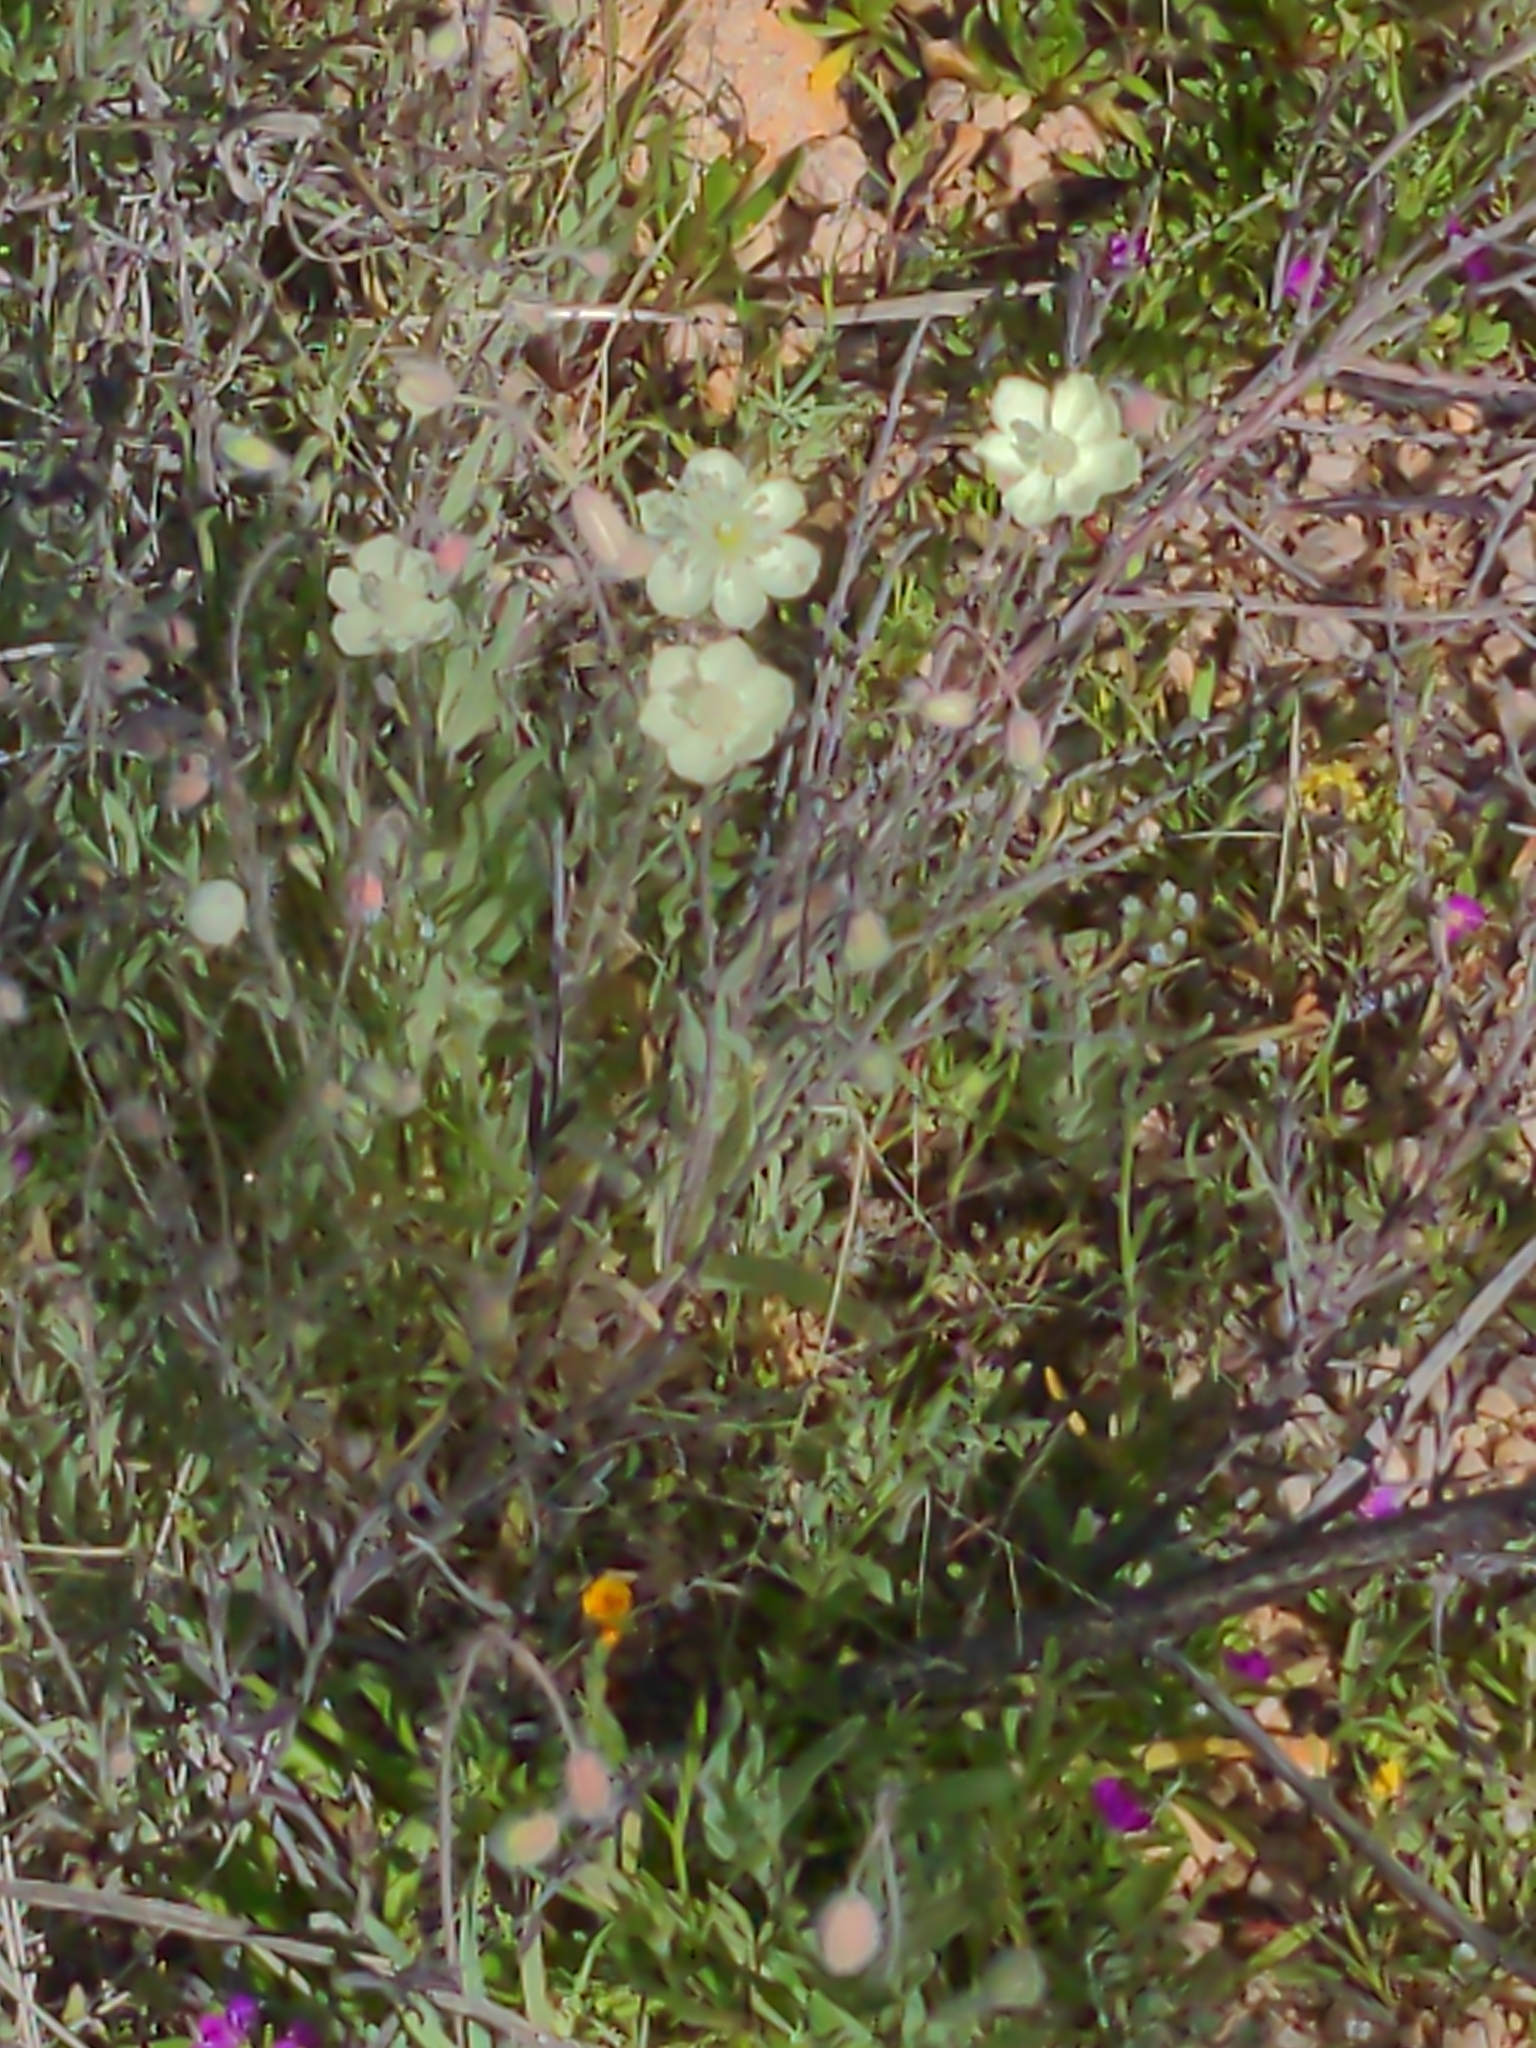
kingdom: Plantae
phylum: Tracheophyta
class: Magnoliopsida
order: Ranunculales
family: Papaveraceae
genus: Platystemon
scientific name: Platystemon californicus
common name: Cream-cups
